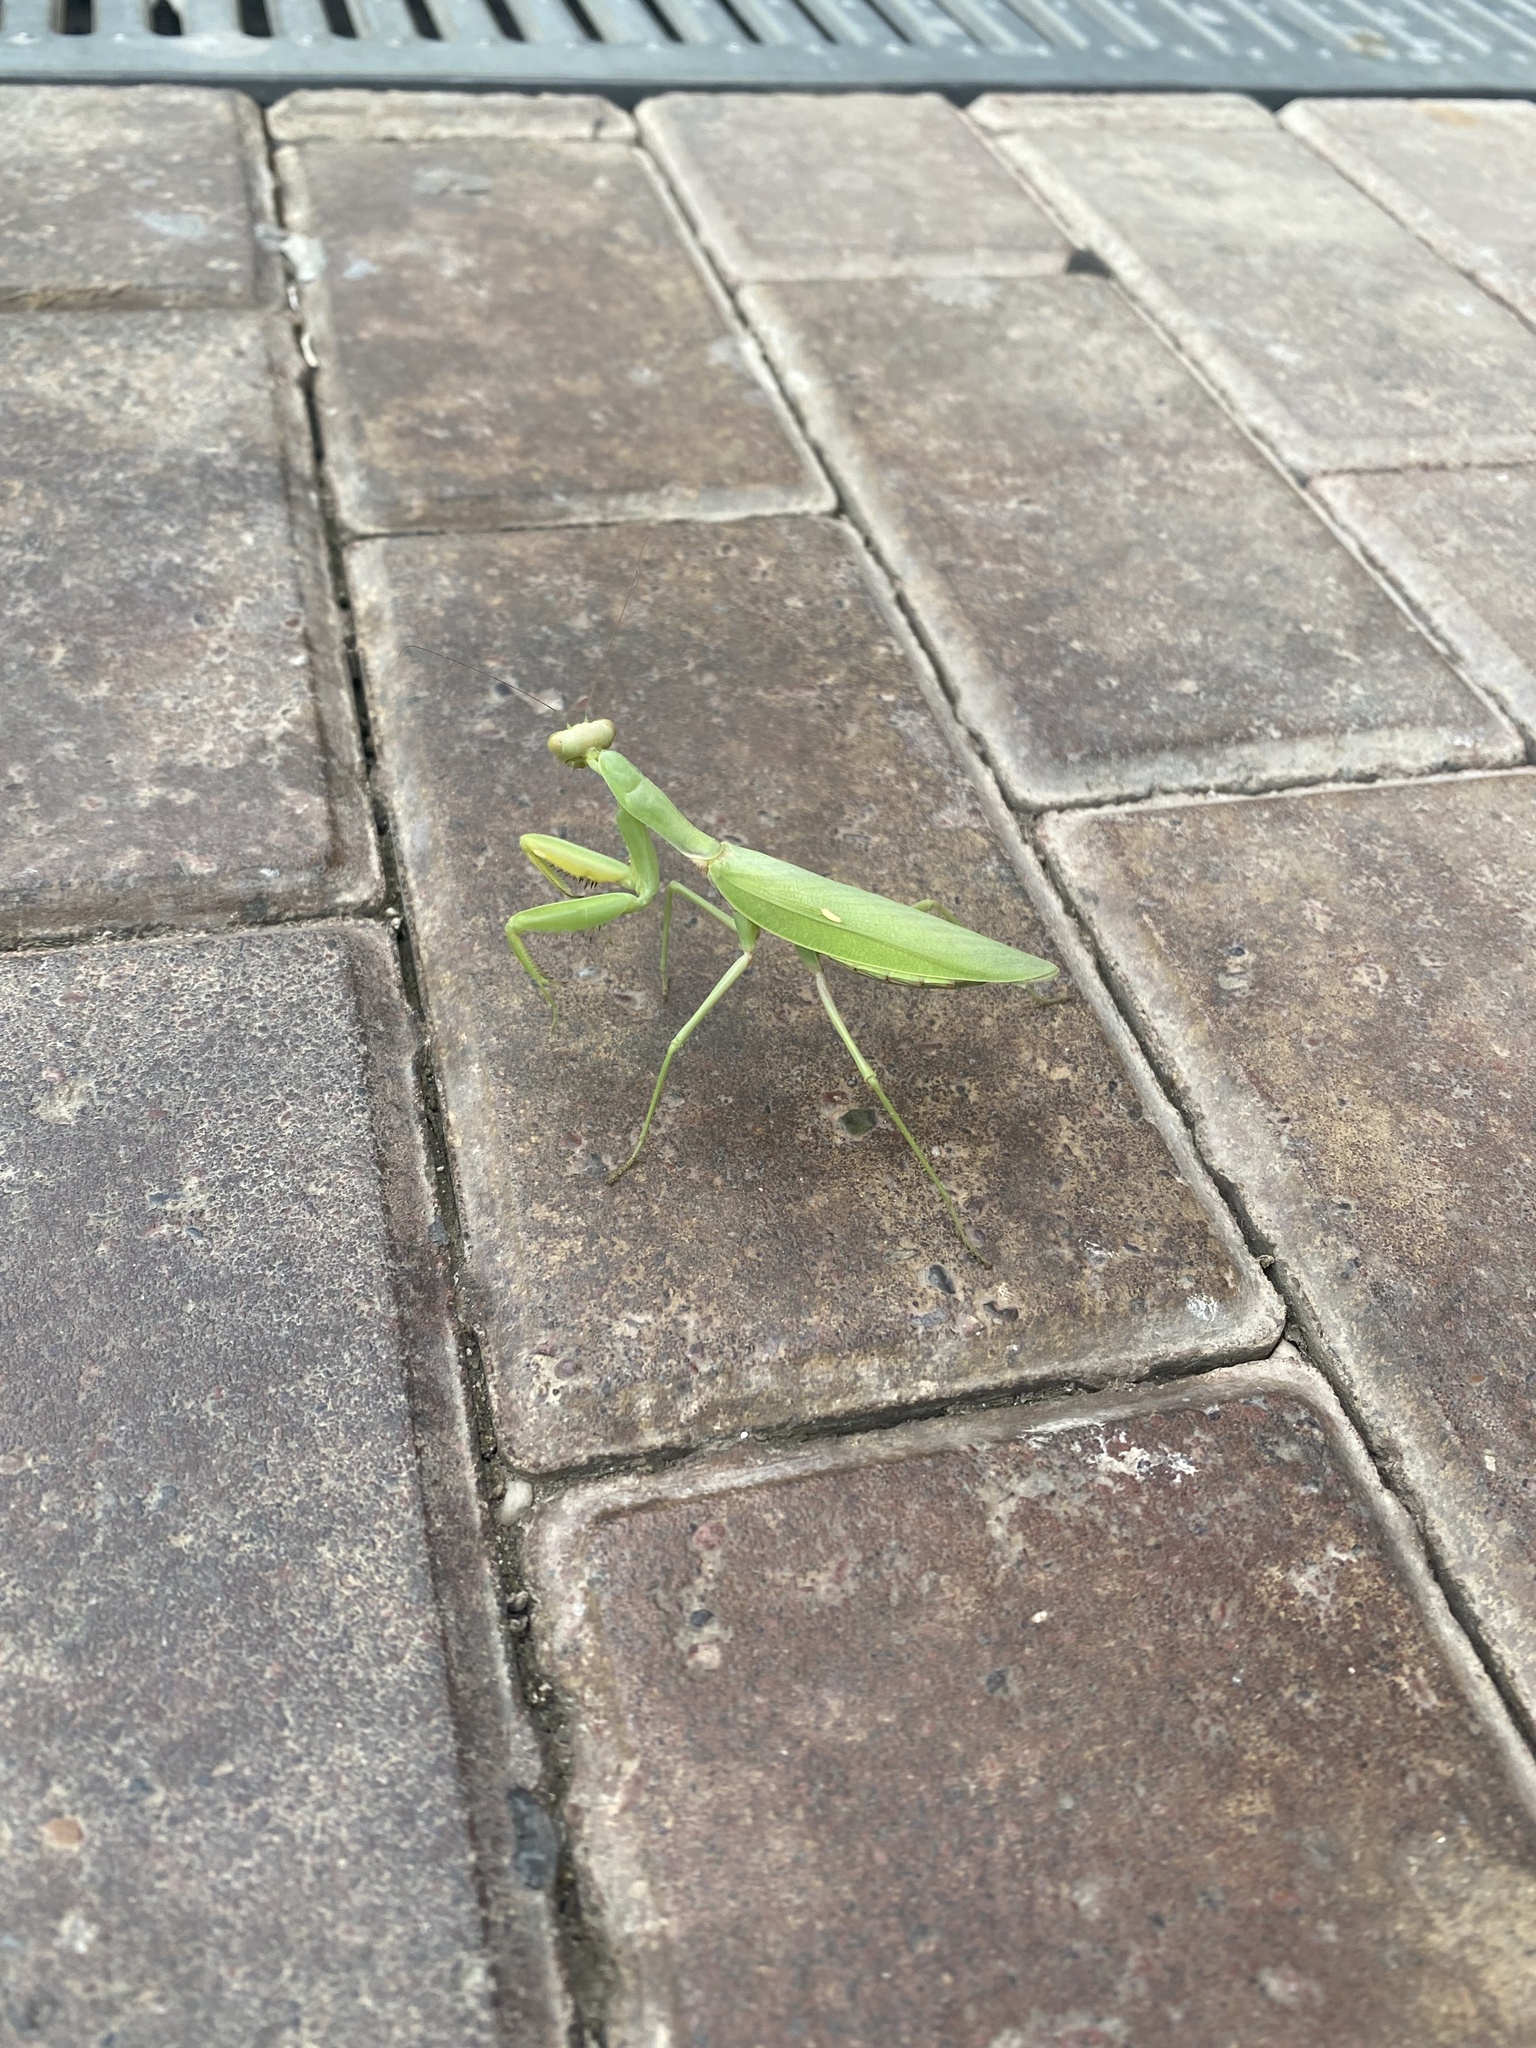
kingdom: Animalia
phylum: Arthropoda
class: Insecta
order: Mantodea
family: Mantidae
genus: Hierodula
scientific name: Hierodula transcaucasica
